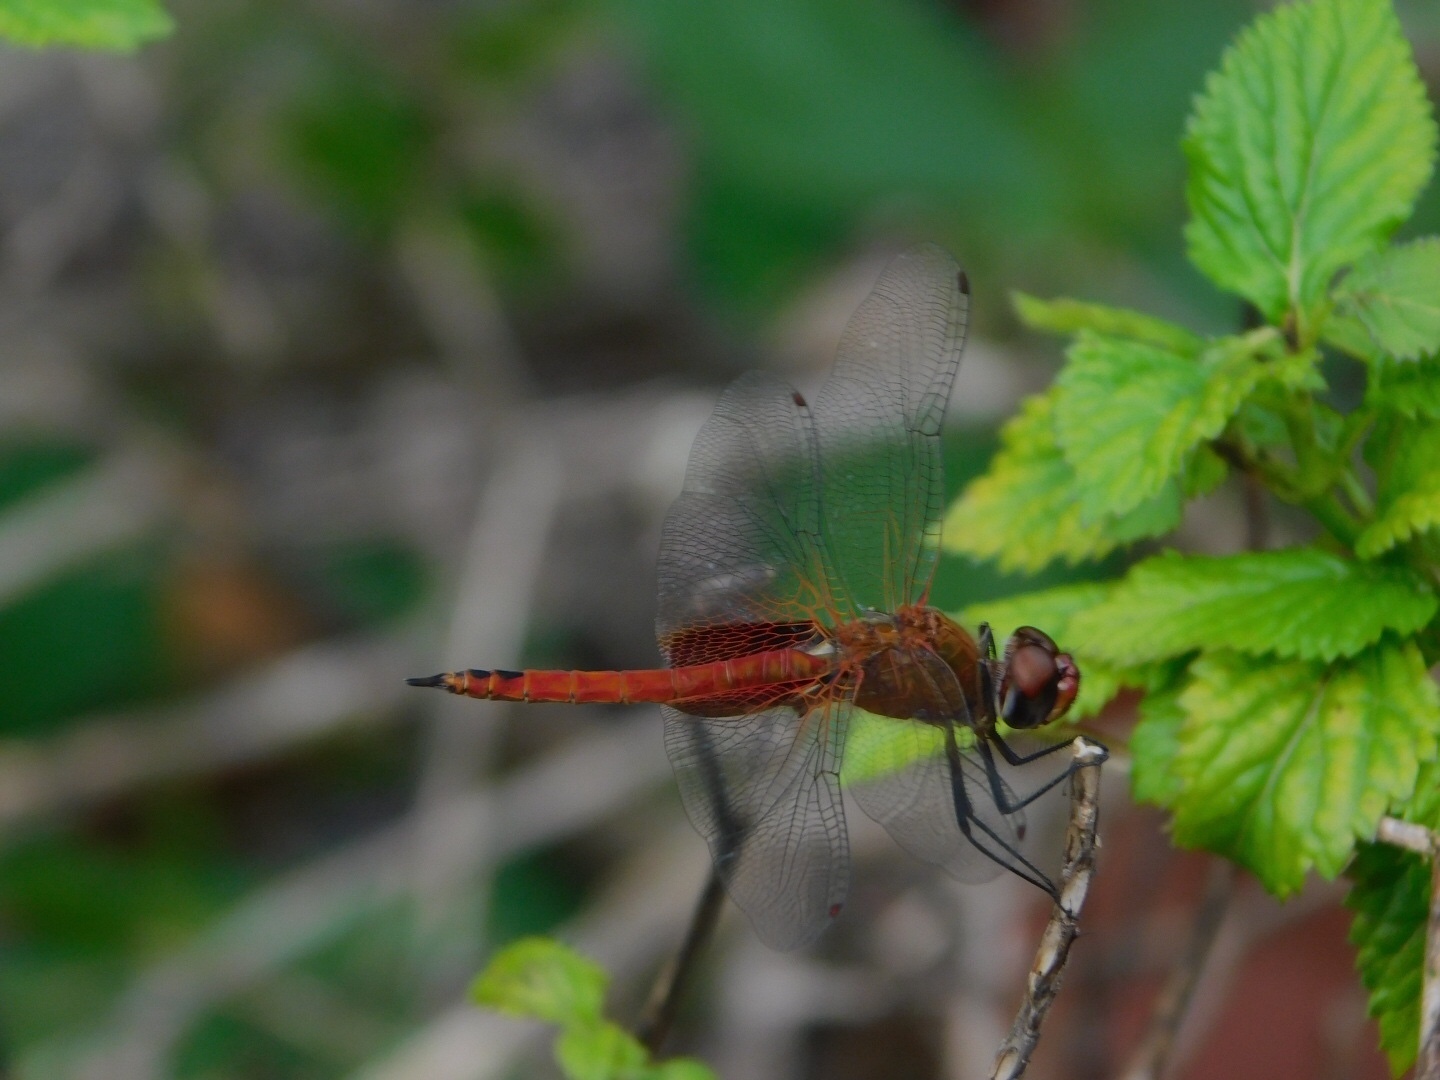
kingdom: Animalia
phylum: Arthropoda
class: Insecta
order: Odonata
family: Libellulidae
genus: Tramea
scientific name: Tramea abdominalis
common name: Vermilion saddlebags
